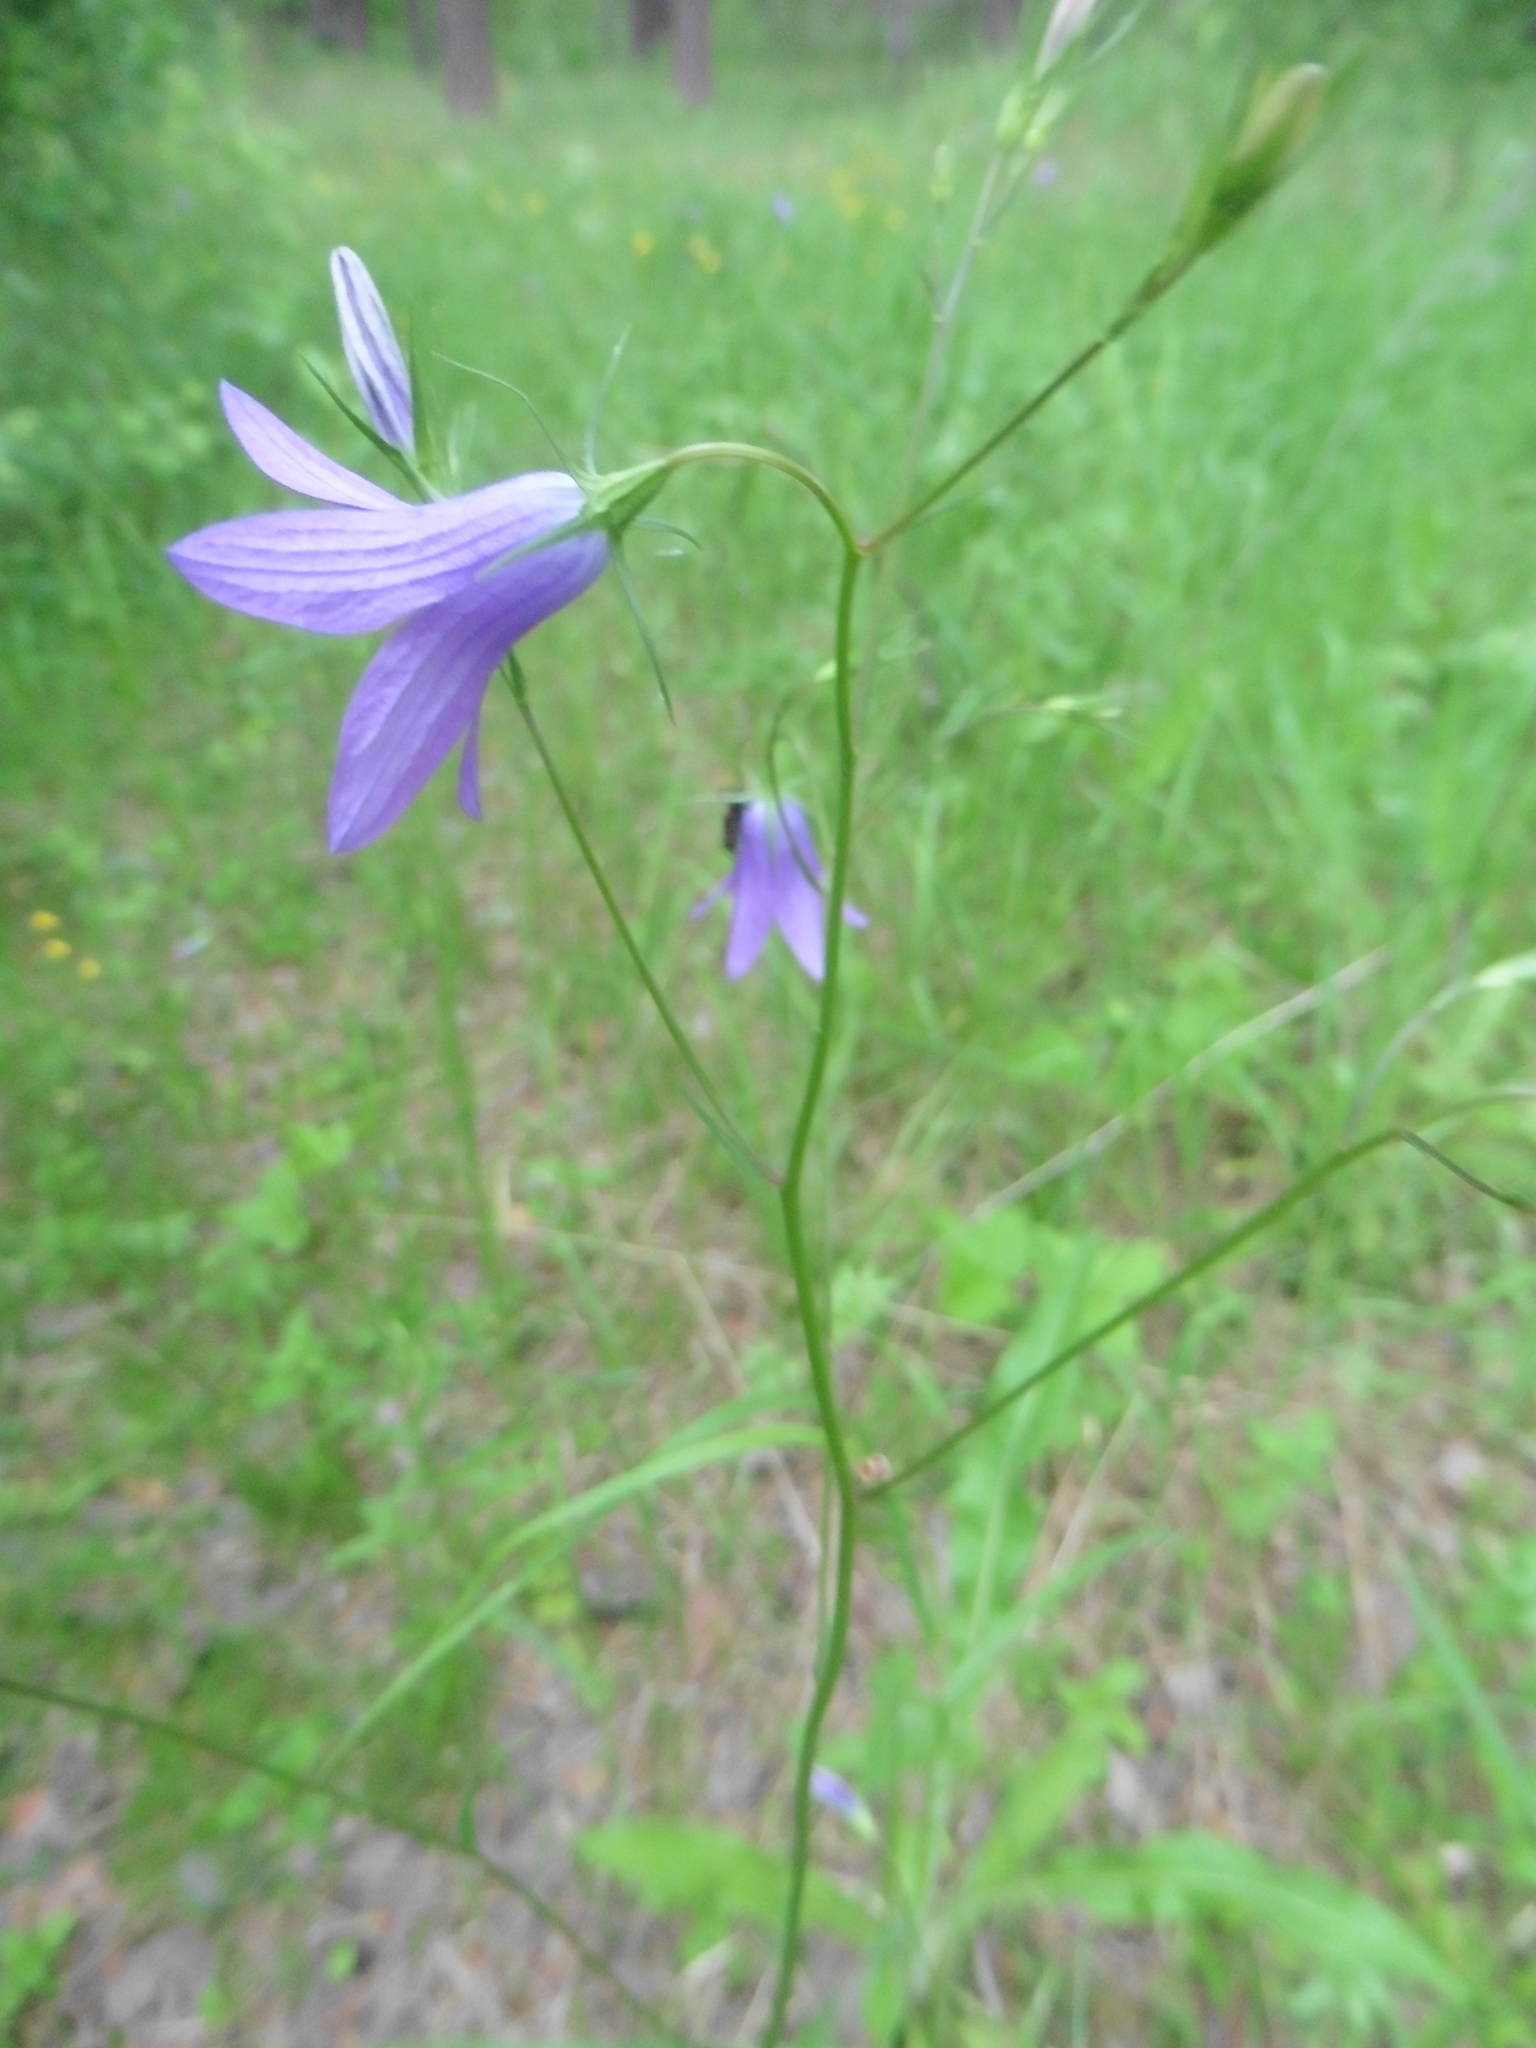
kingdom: Plantae
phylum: Tracheophyta
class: Magnoliopsida
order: Asterales
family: Campanulaceae
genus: Campanula
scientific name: Campanula patula
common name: Spreading bellflower
